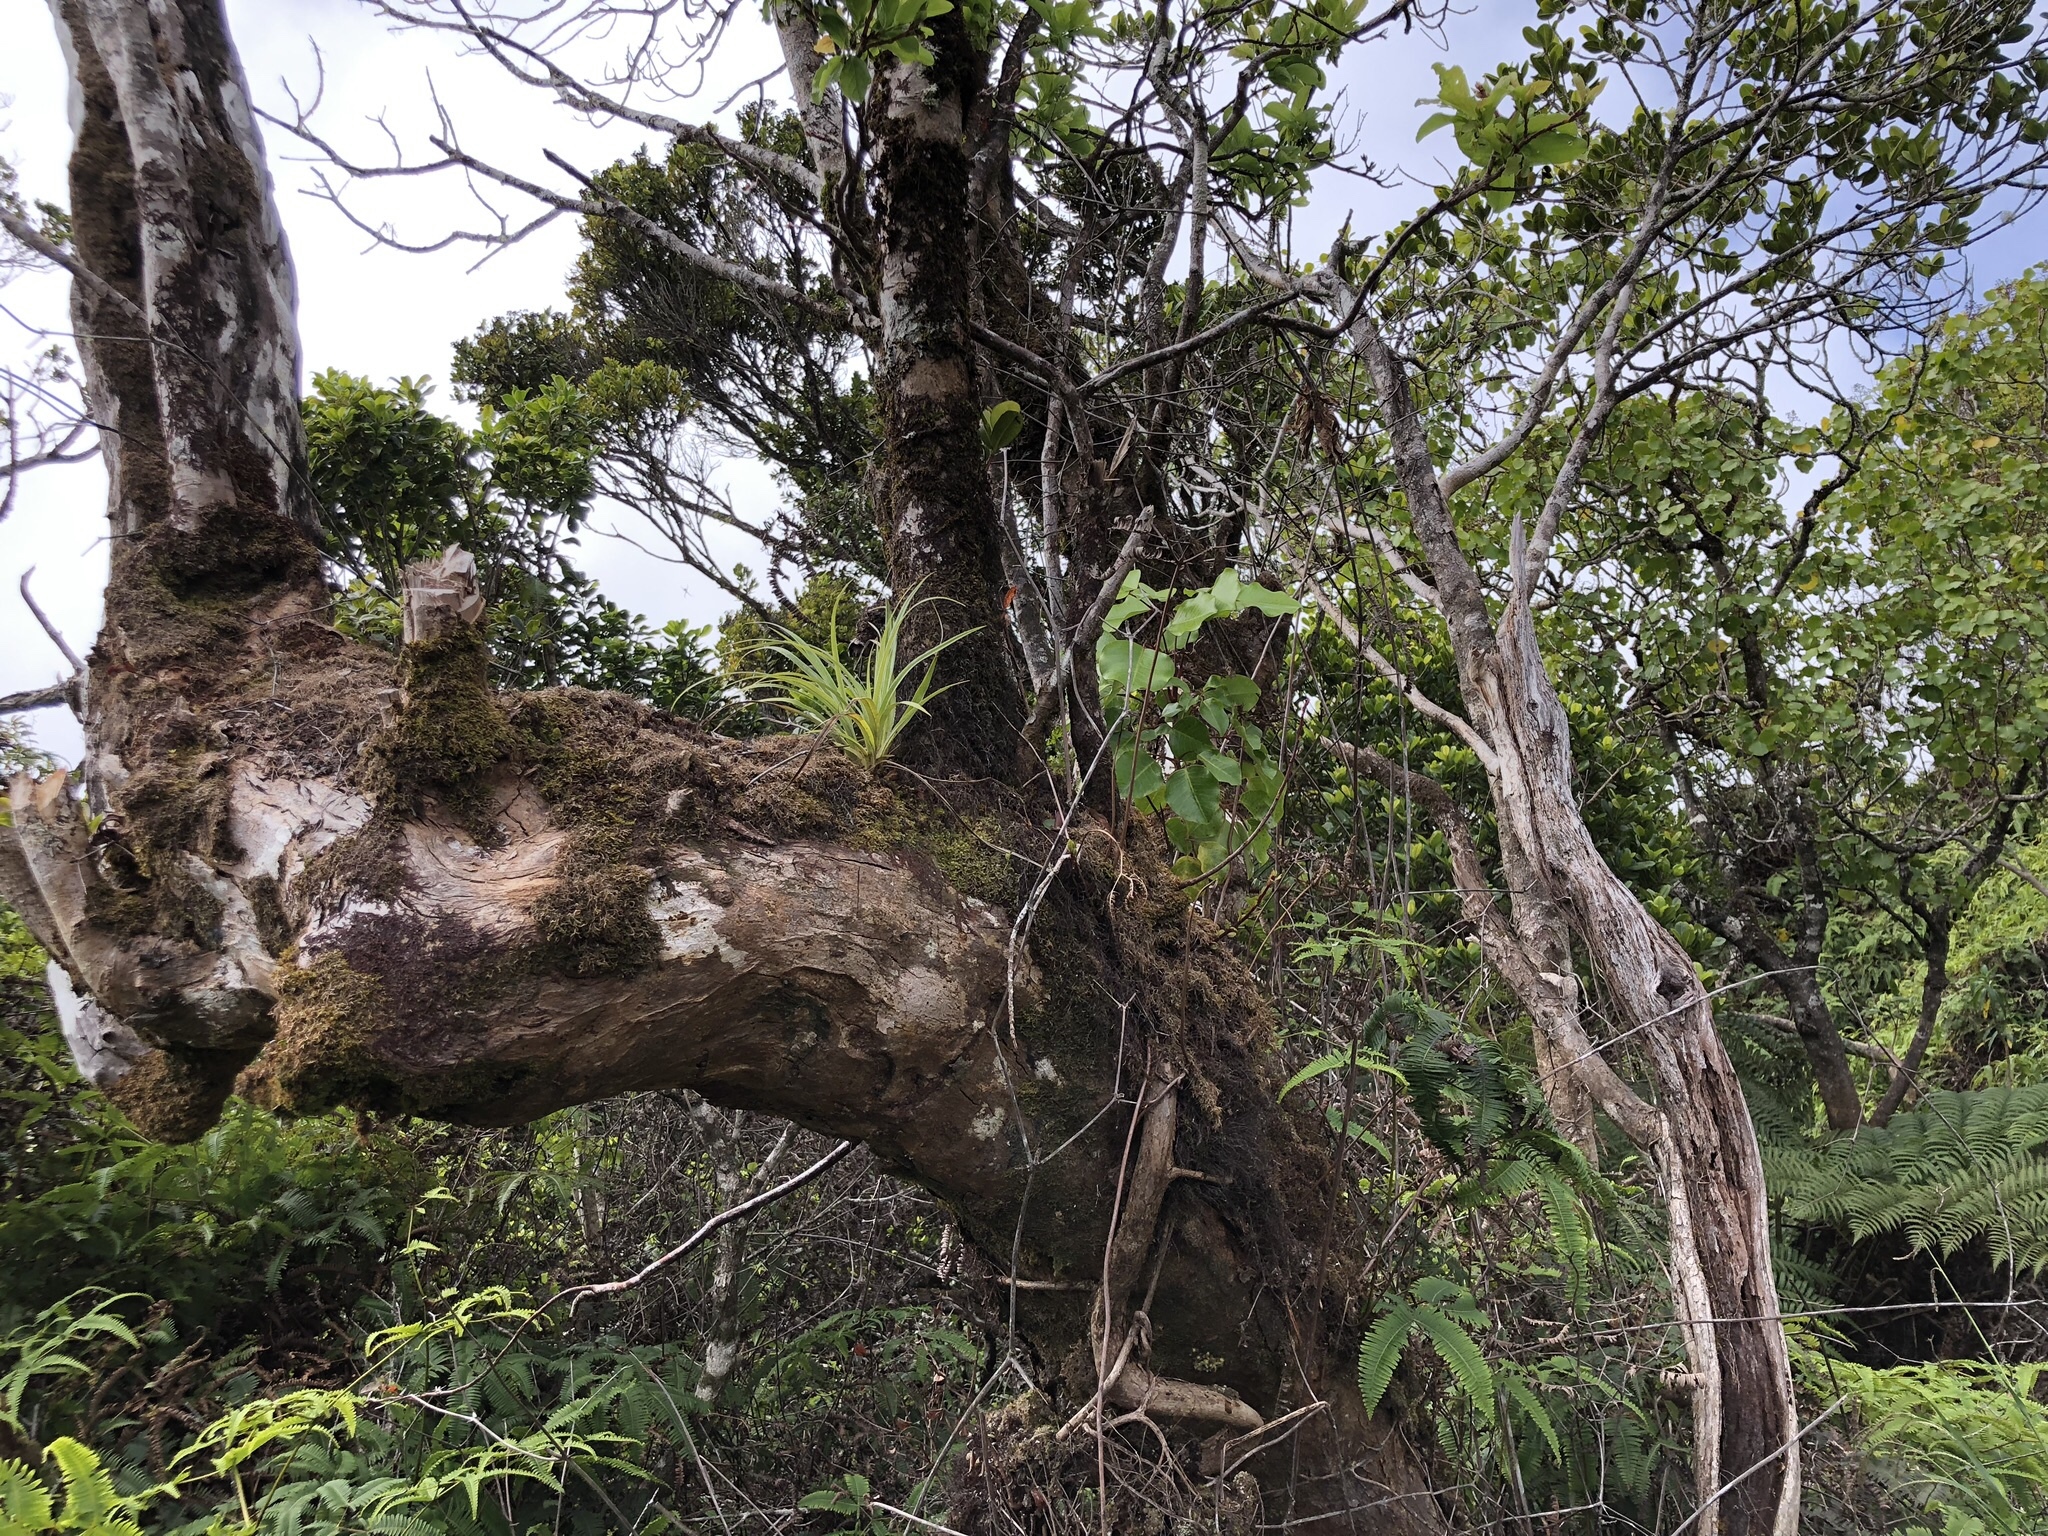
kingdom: Plantae
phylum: Tracheophyta
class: Liliopsida
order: Asparagales
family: Asteliaceae
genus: Astelia
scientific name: Astelia argyrocoma
